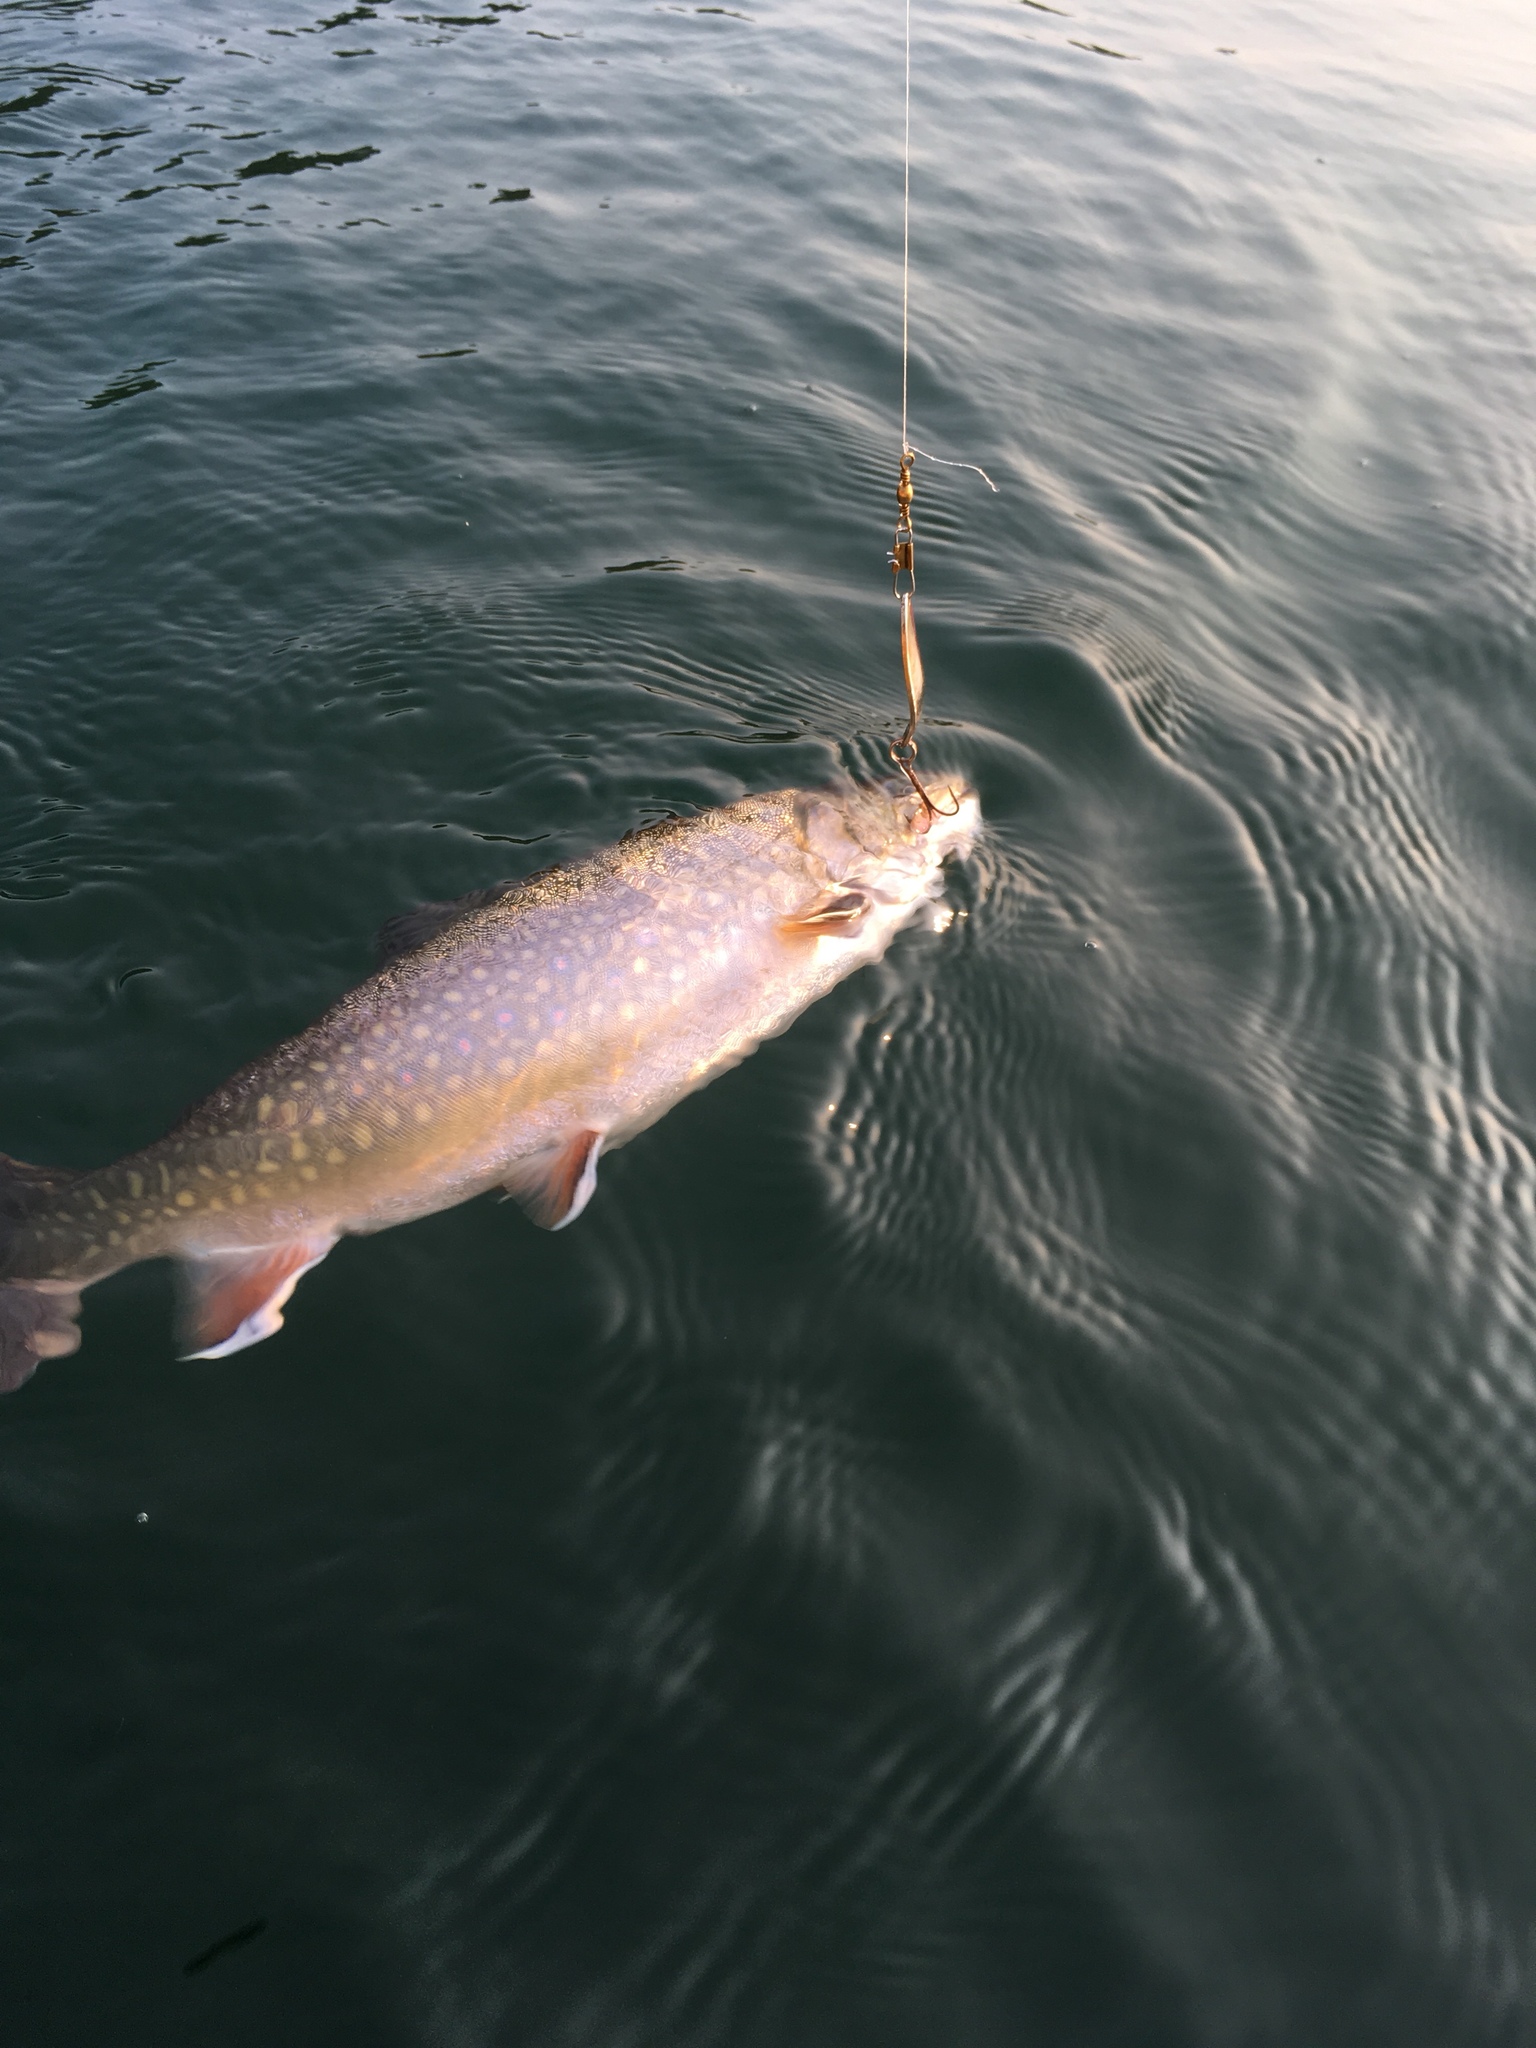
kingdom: Animalia
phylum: Chordata
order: Salmoniformes
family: Salmonidae
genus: Salvelinus
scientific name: Salvelinus fontinalis
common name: Brook trout
